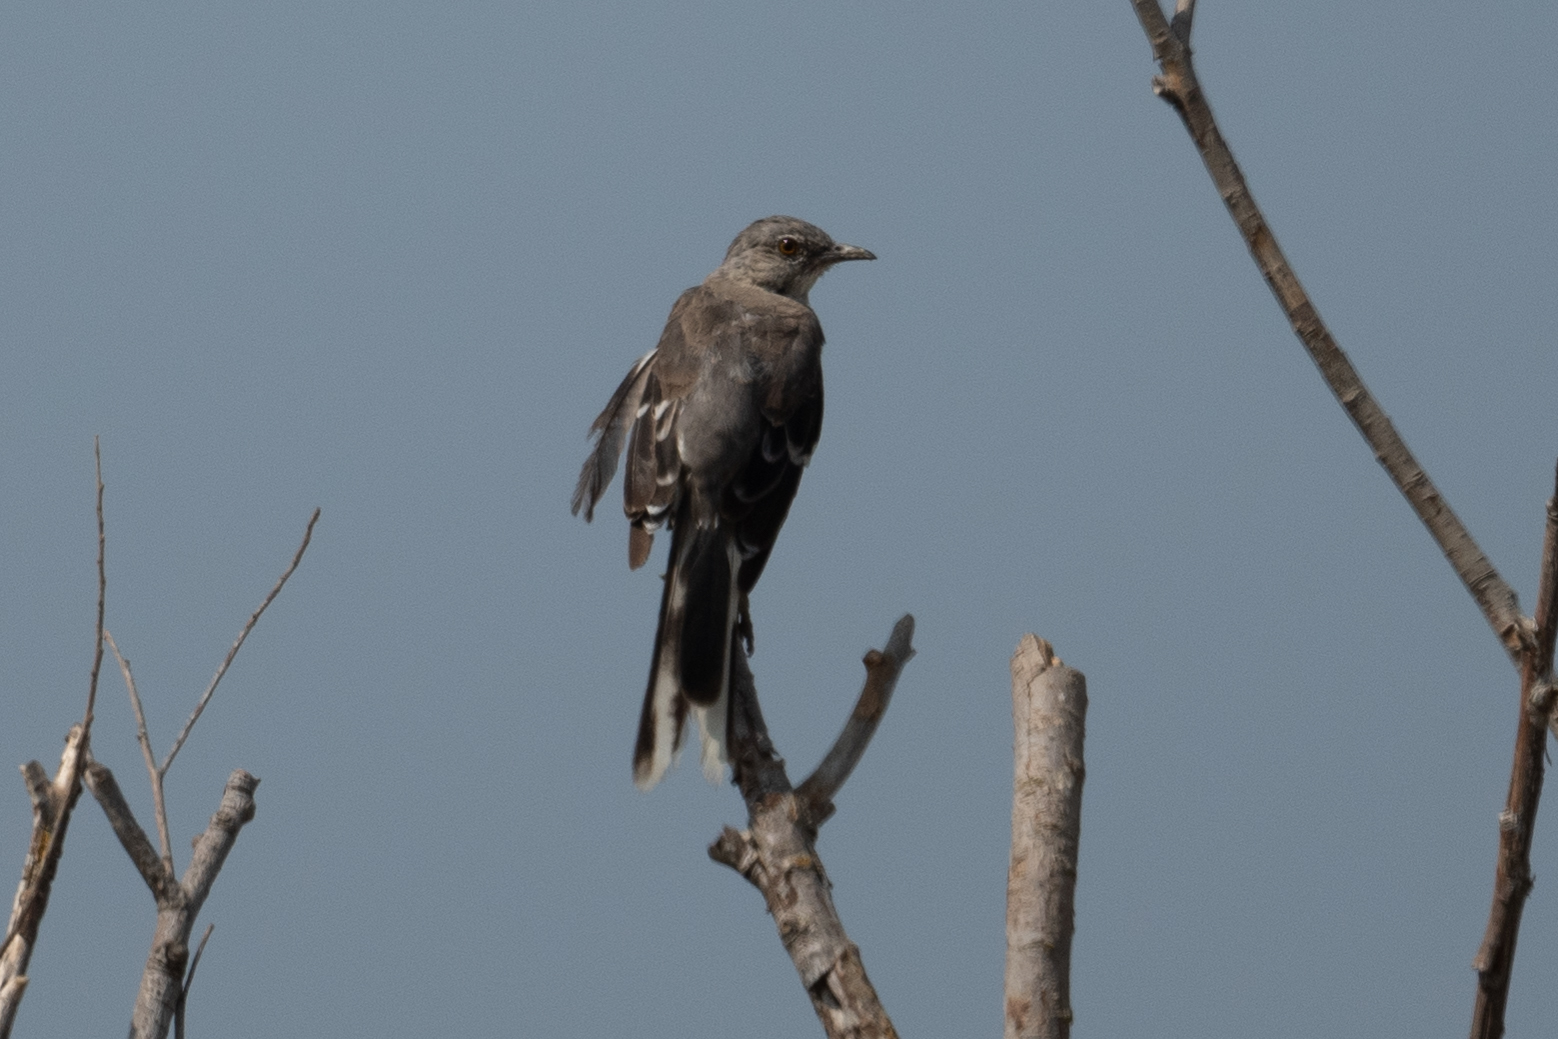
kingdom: Animalia
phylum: Chordata
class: Aves
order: Passeriformes
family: Mimidae
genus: Mimus
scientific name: Mimus polyglottos
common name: Northern mockingbird
